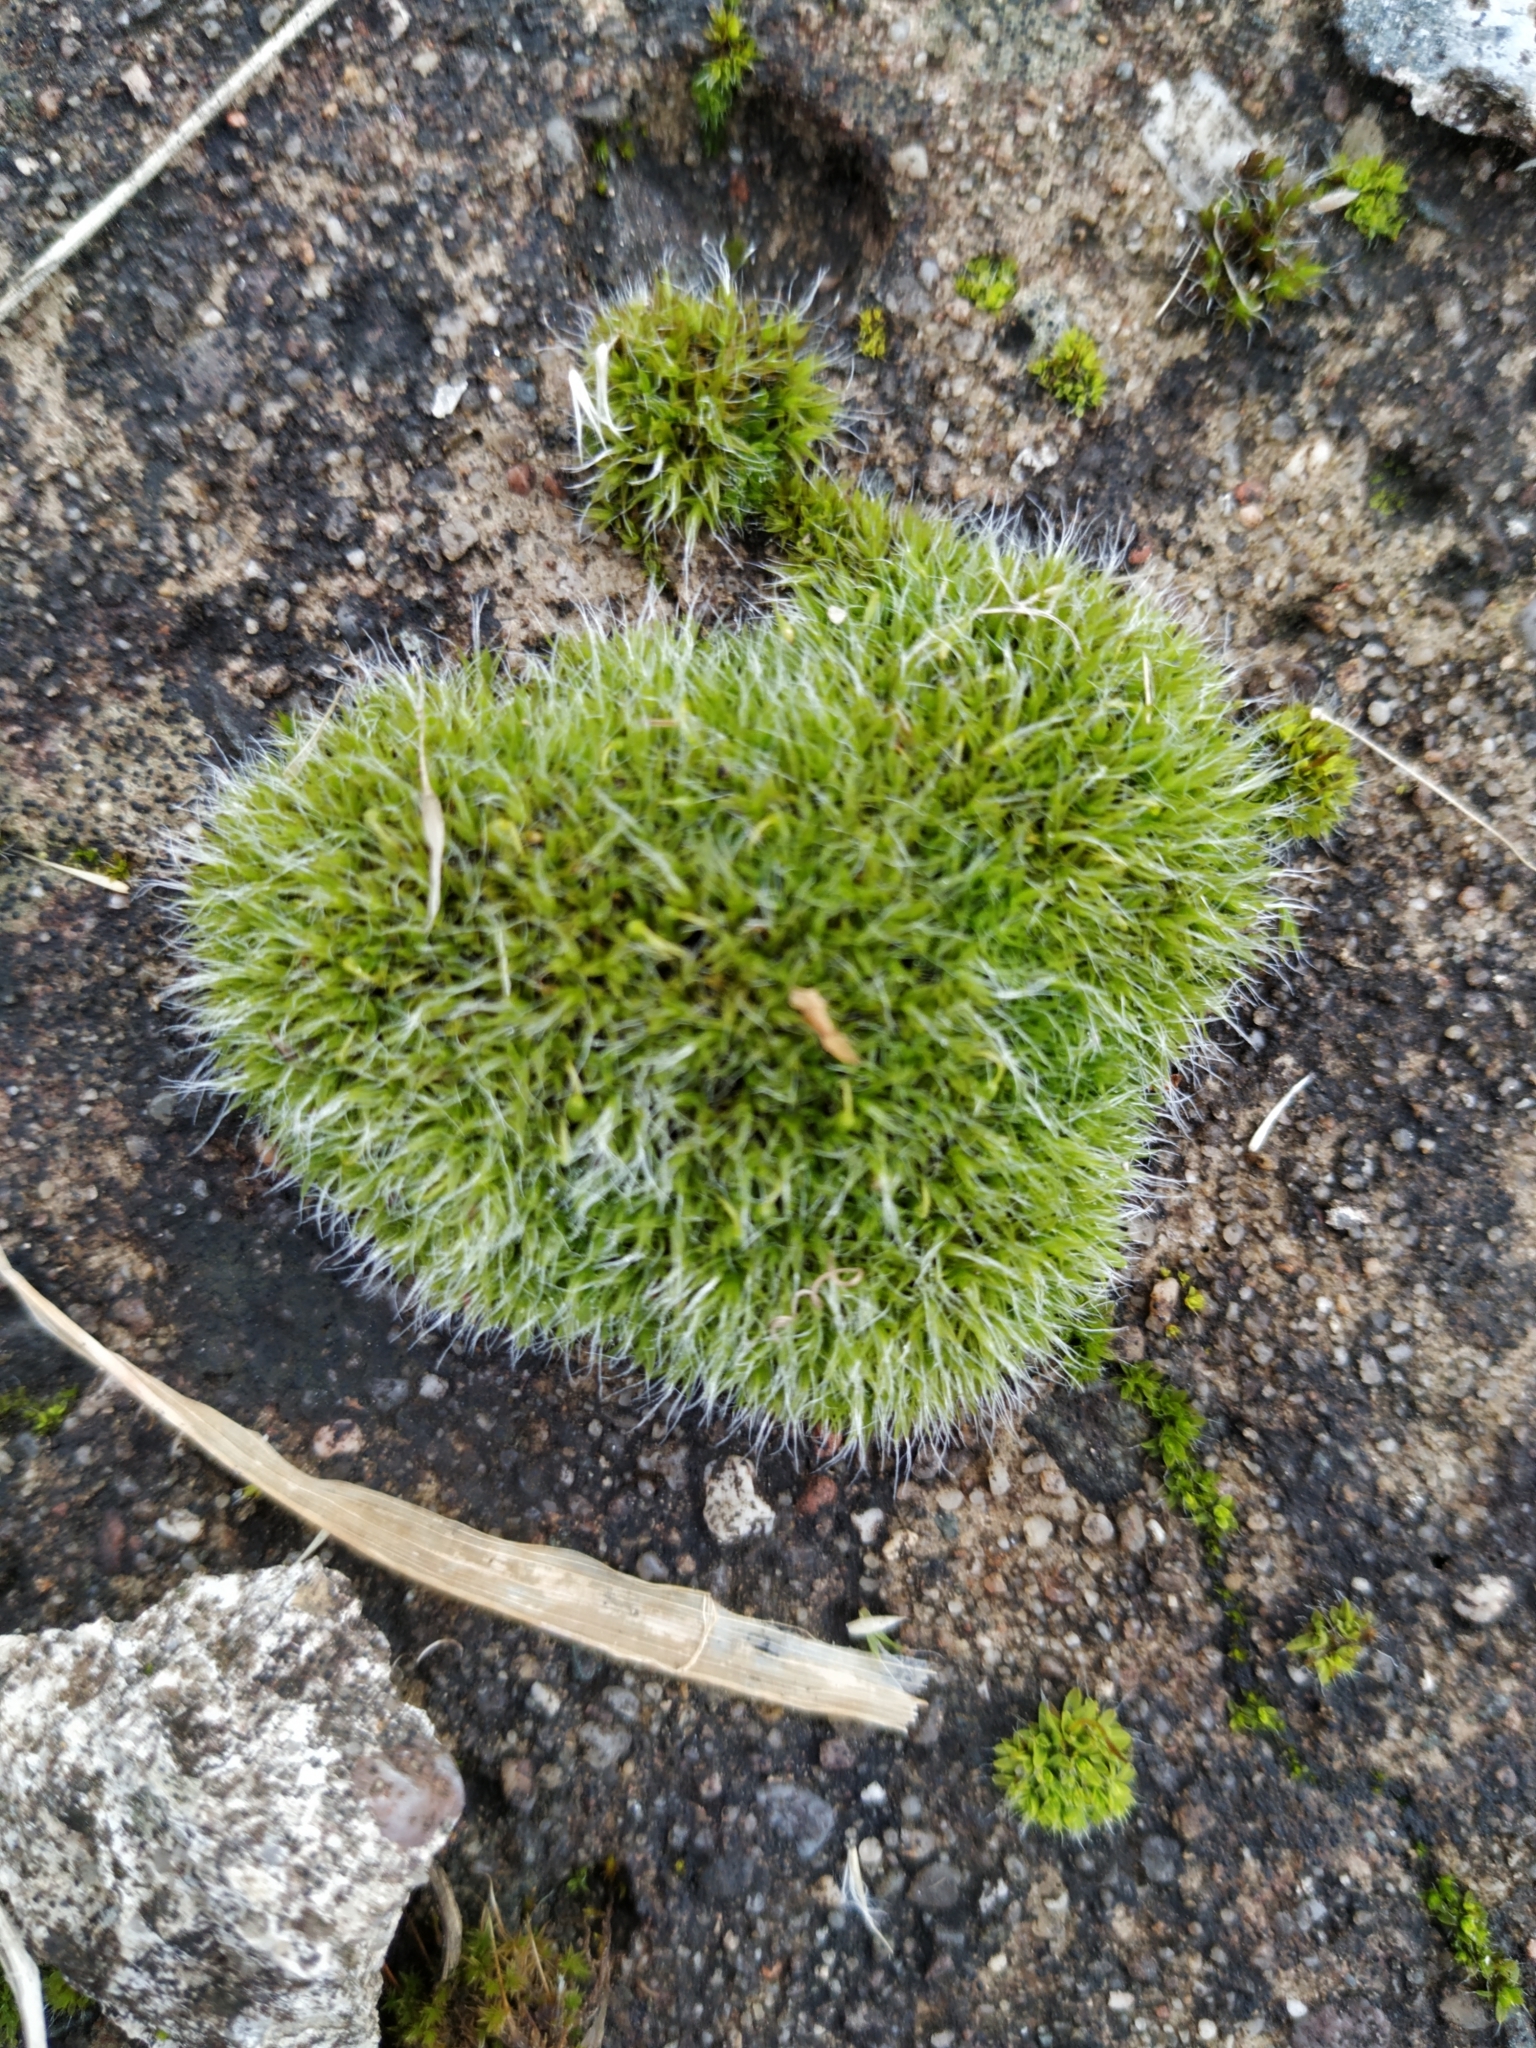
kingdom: Plantae
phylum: Bryophyta
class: Bryopsida
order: Grimmiales
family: Grimmiaceae
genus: Grimmia
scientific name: Grimmia pulvinata
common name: Grey-cushioned grimmia
